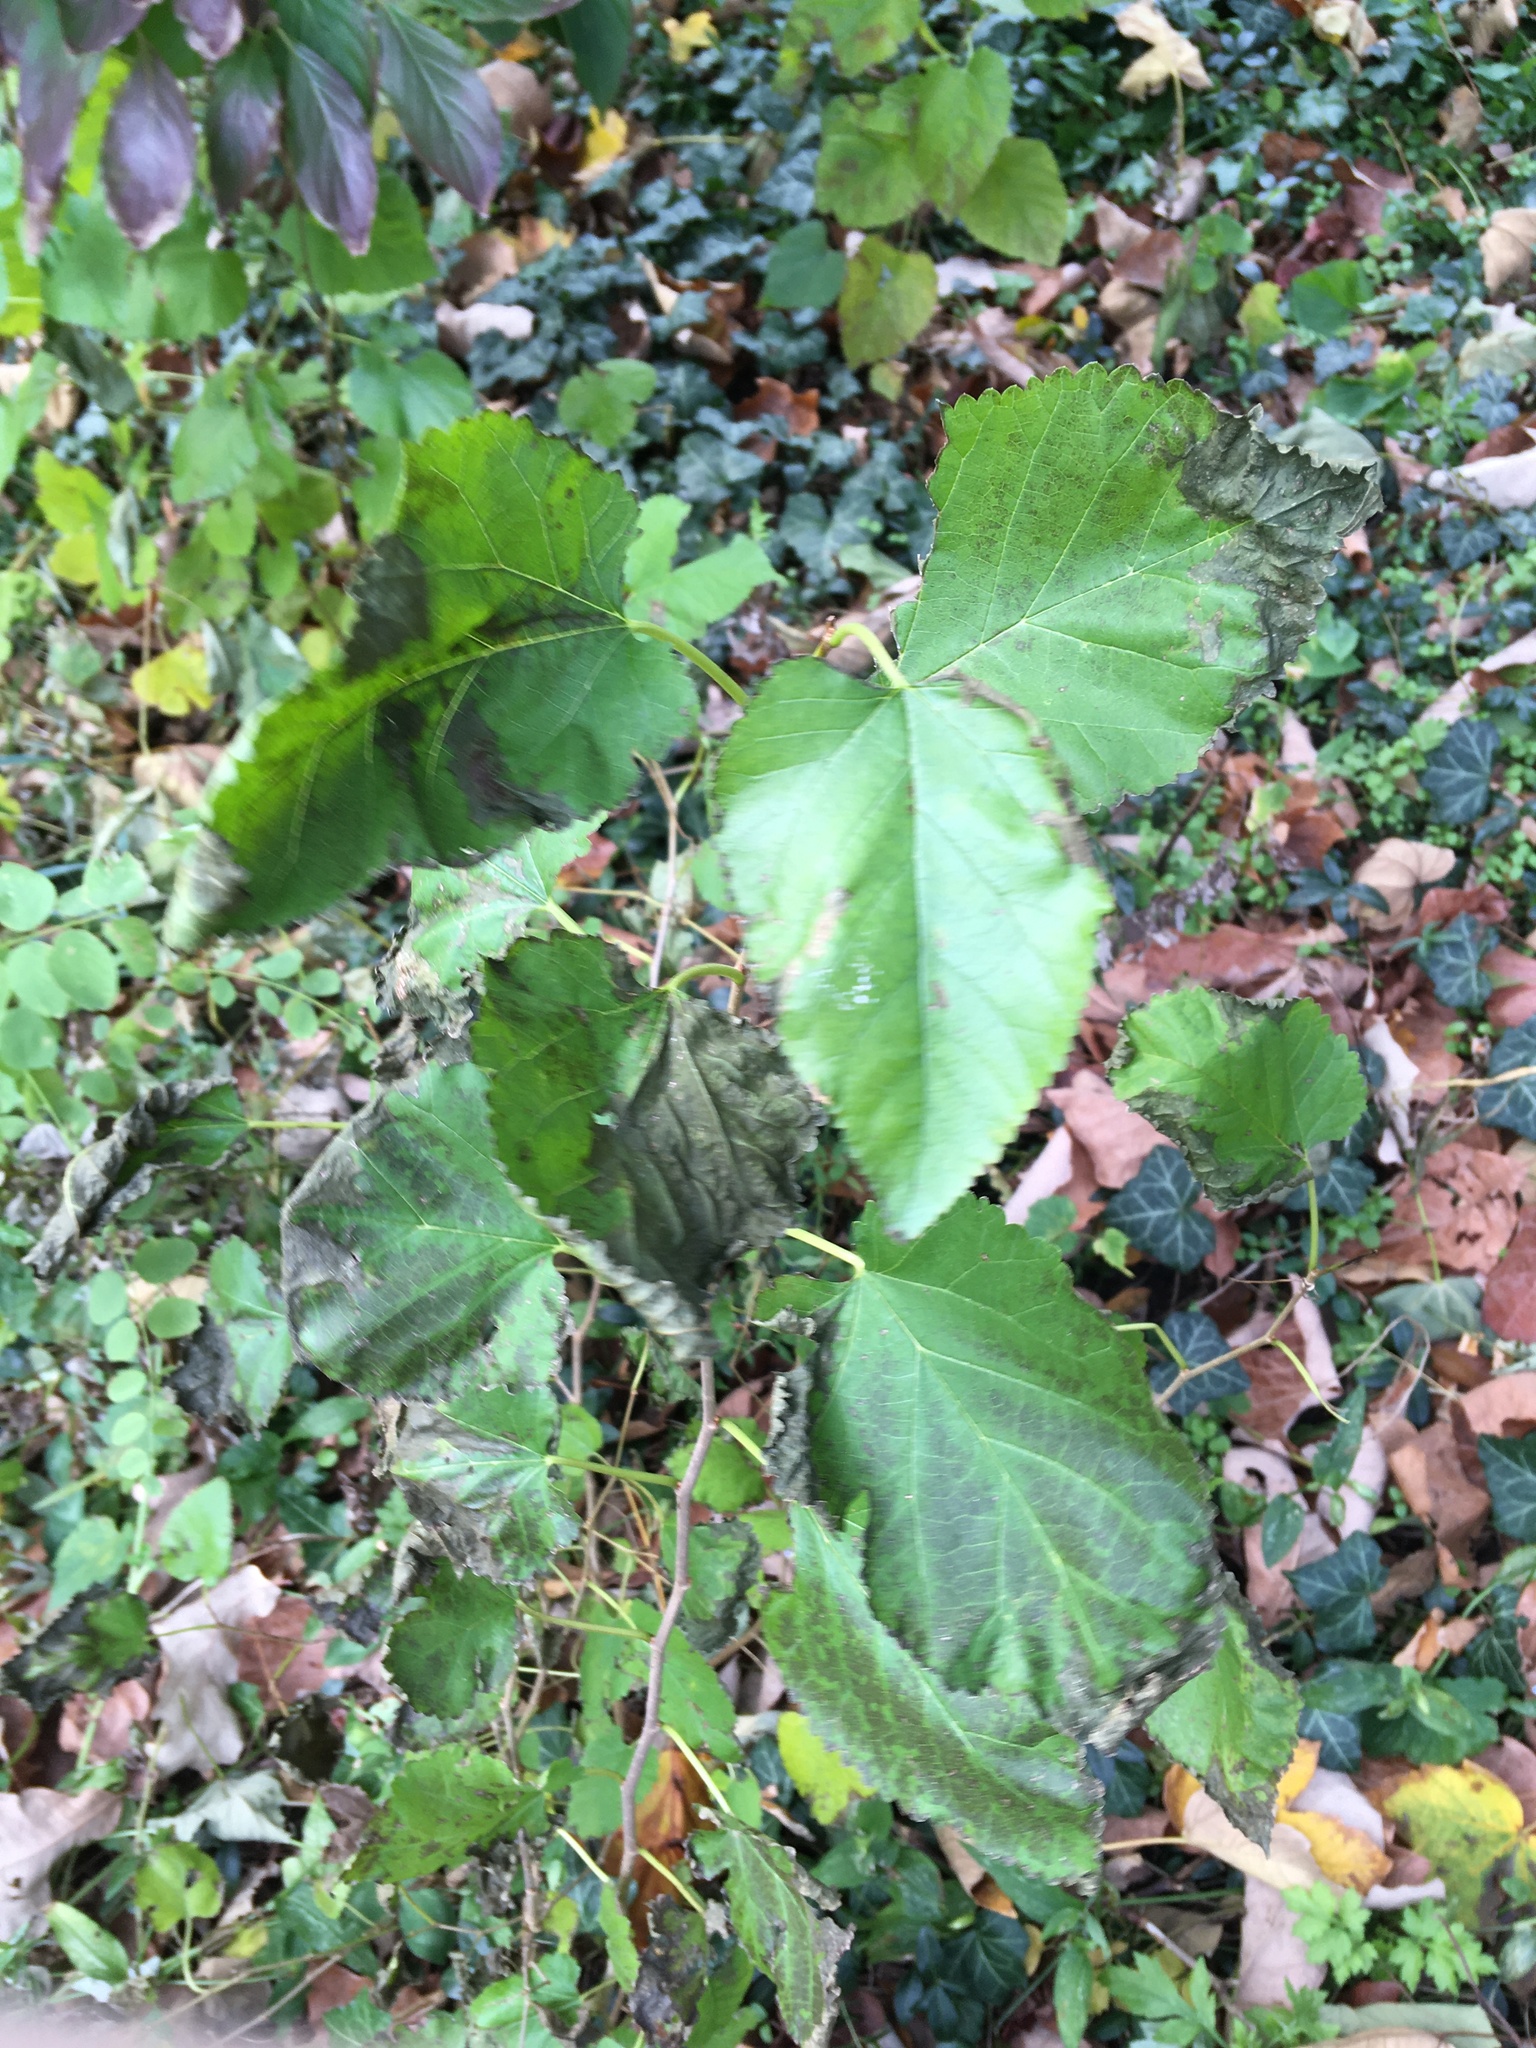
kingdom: Plantae
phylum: Tracheophyta
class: Magnoliopsida
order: Rosales
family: Moraceae
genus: Morus
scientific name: Morus alba
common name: White mulberry
